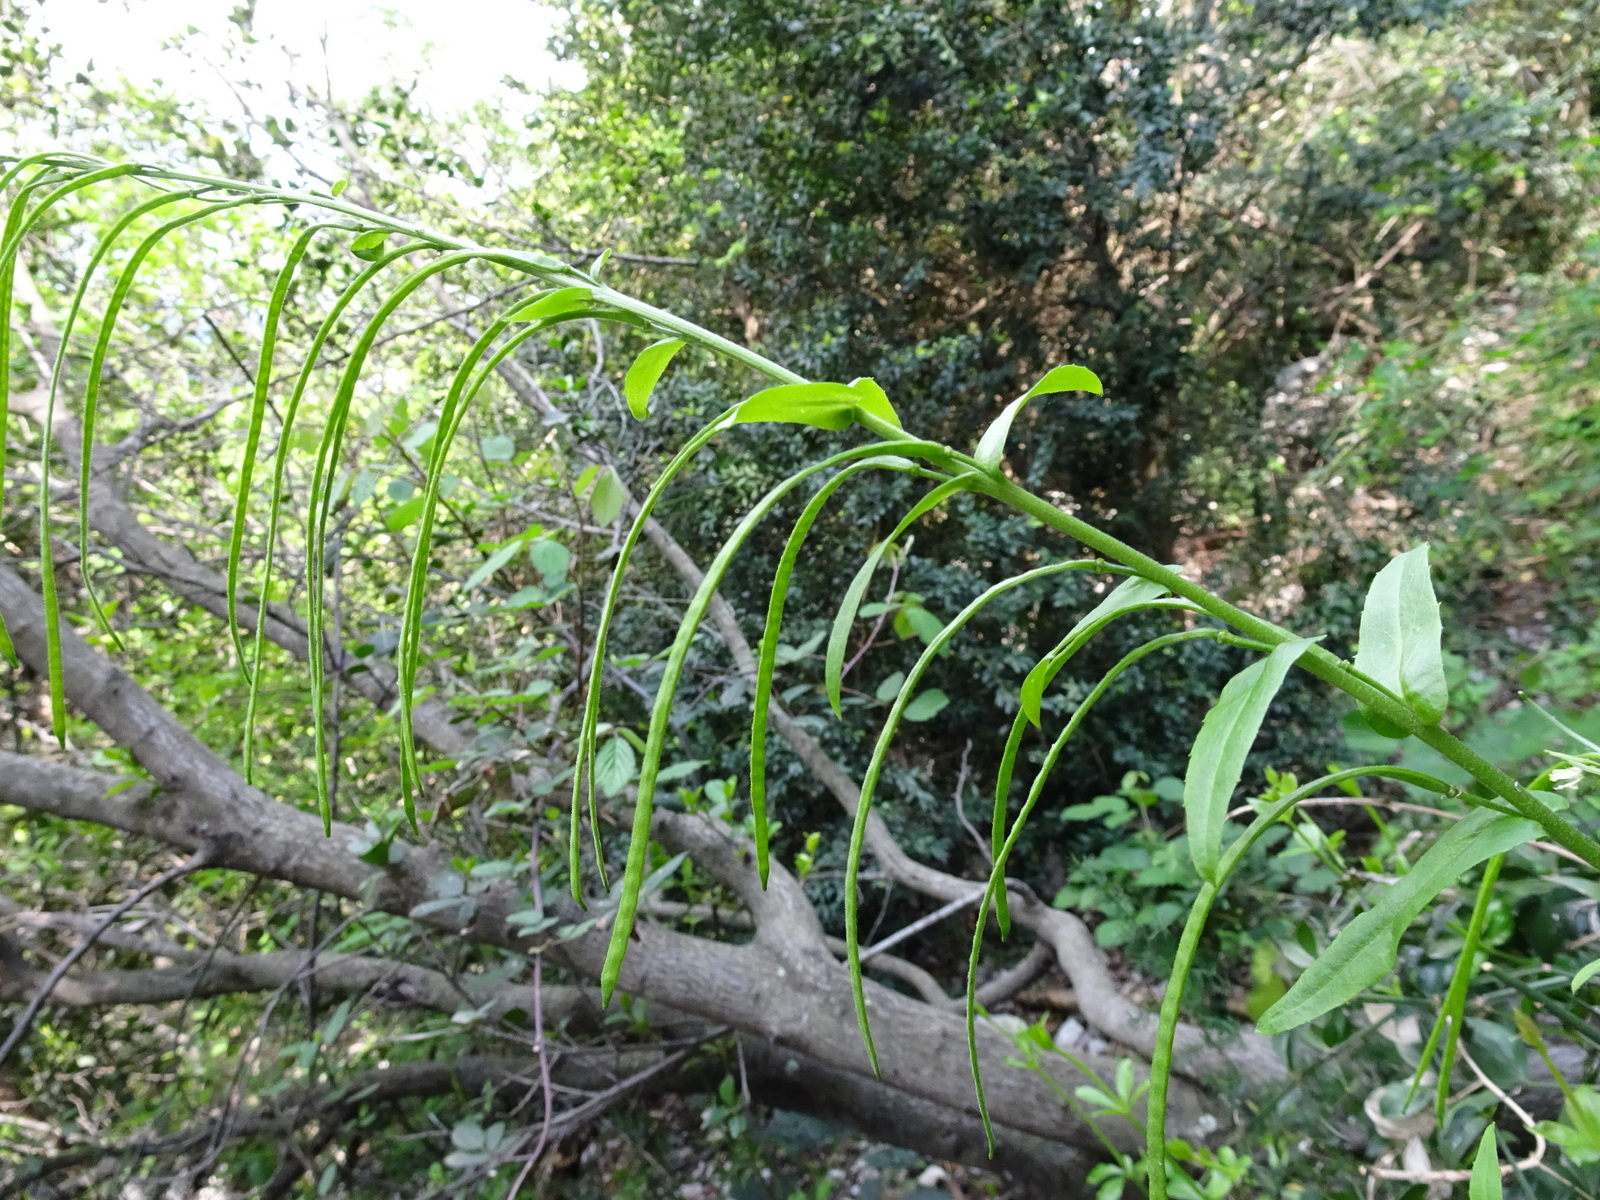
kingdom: Plantae
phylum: Tracheophyta
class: Magnoliopsida
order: Brassicales
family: Brassicaceae
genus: Pseudoturritis
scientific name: Pseudoturritis turrita
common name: Tower cress
